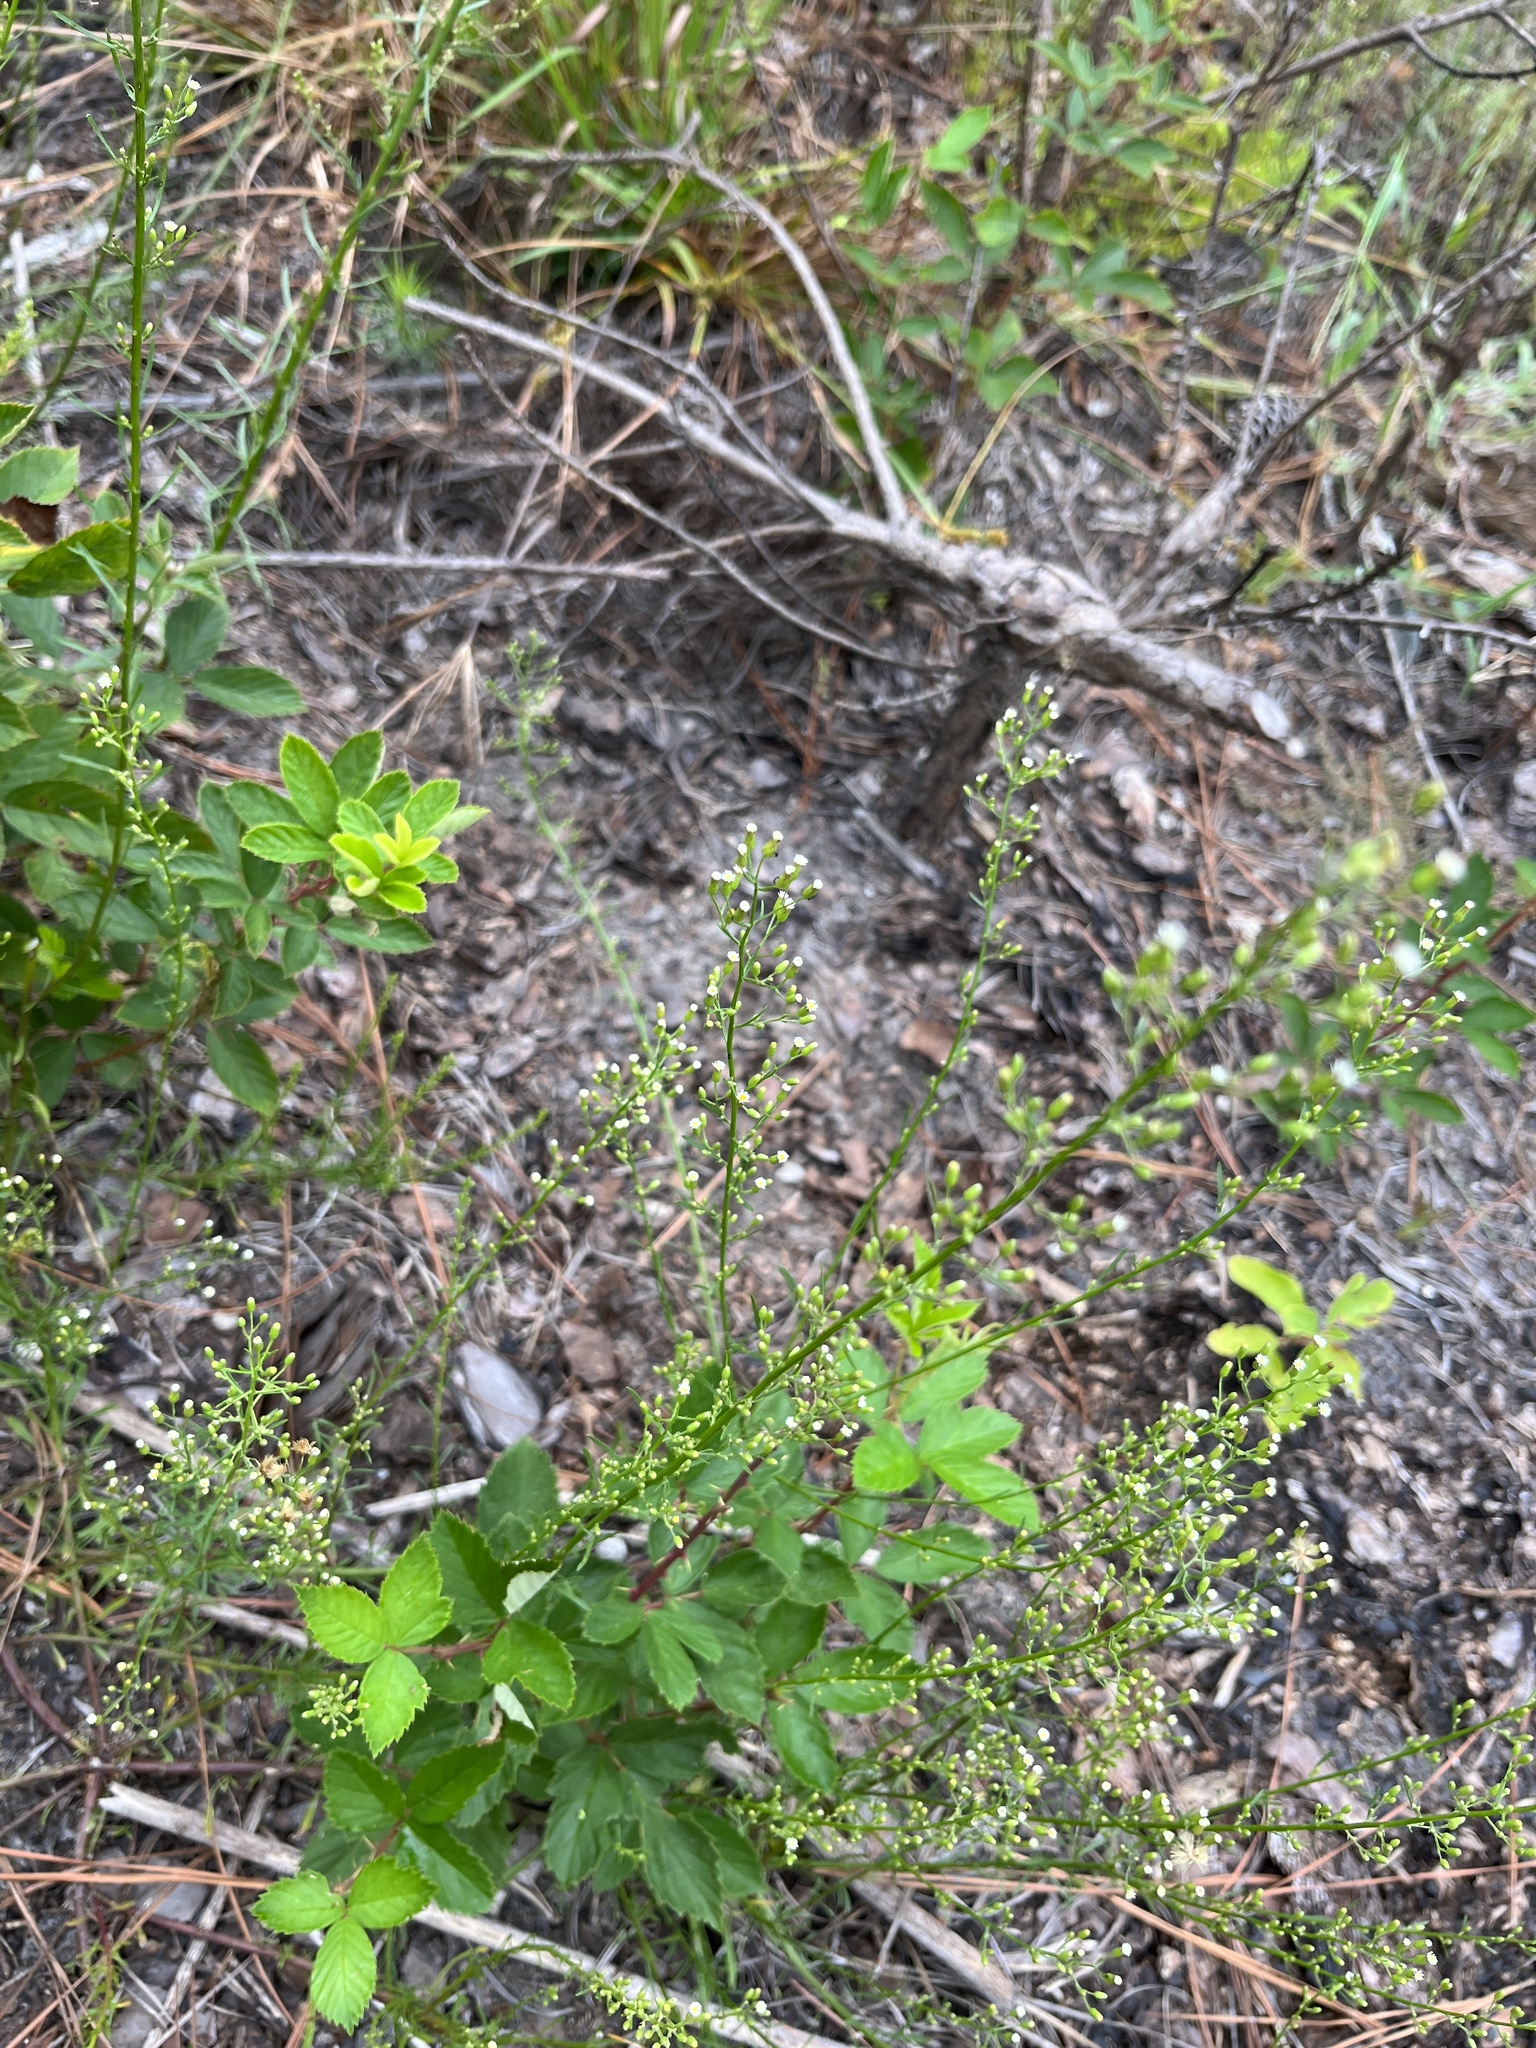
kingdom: Plantae
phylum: Tracheophyta
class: Magnoliopsida
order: Asterales
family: Asteraceae
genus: Erigeron
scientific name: Erigeron canadensis
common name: Canadian fleabane
